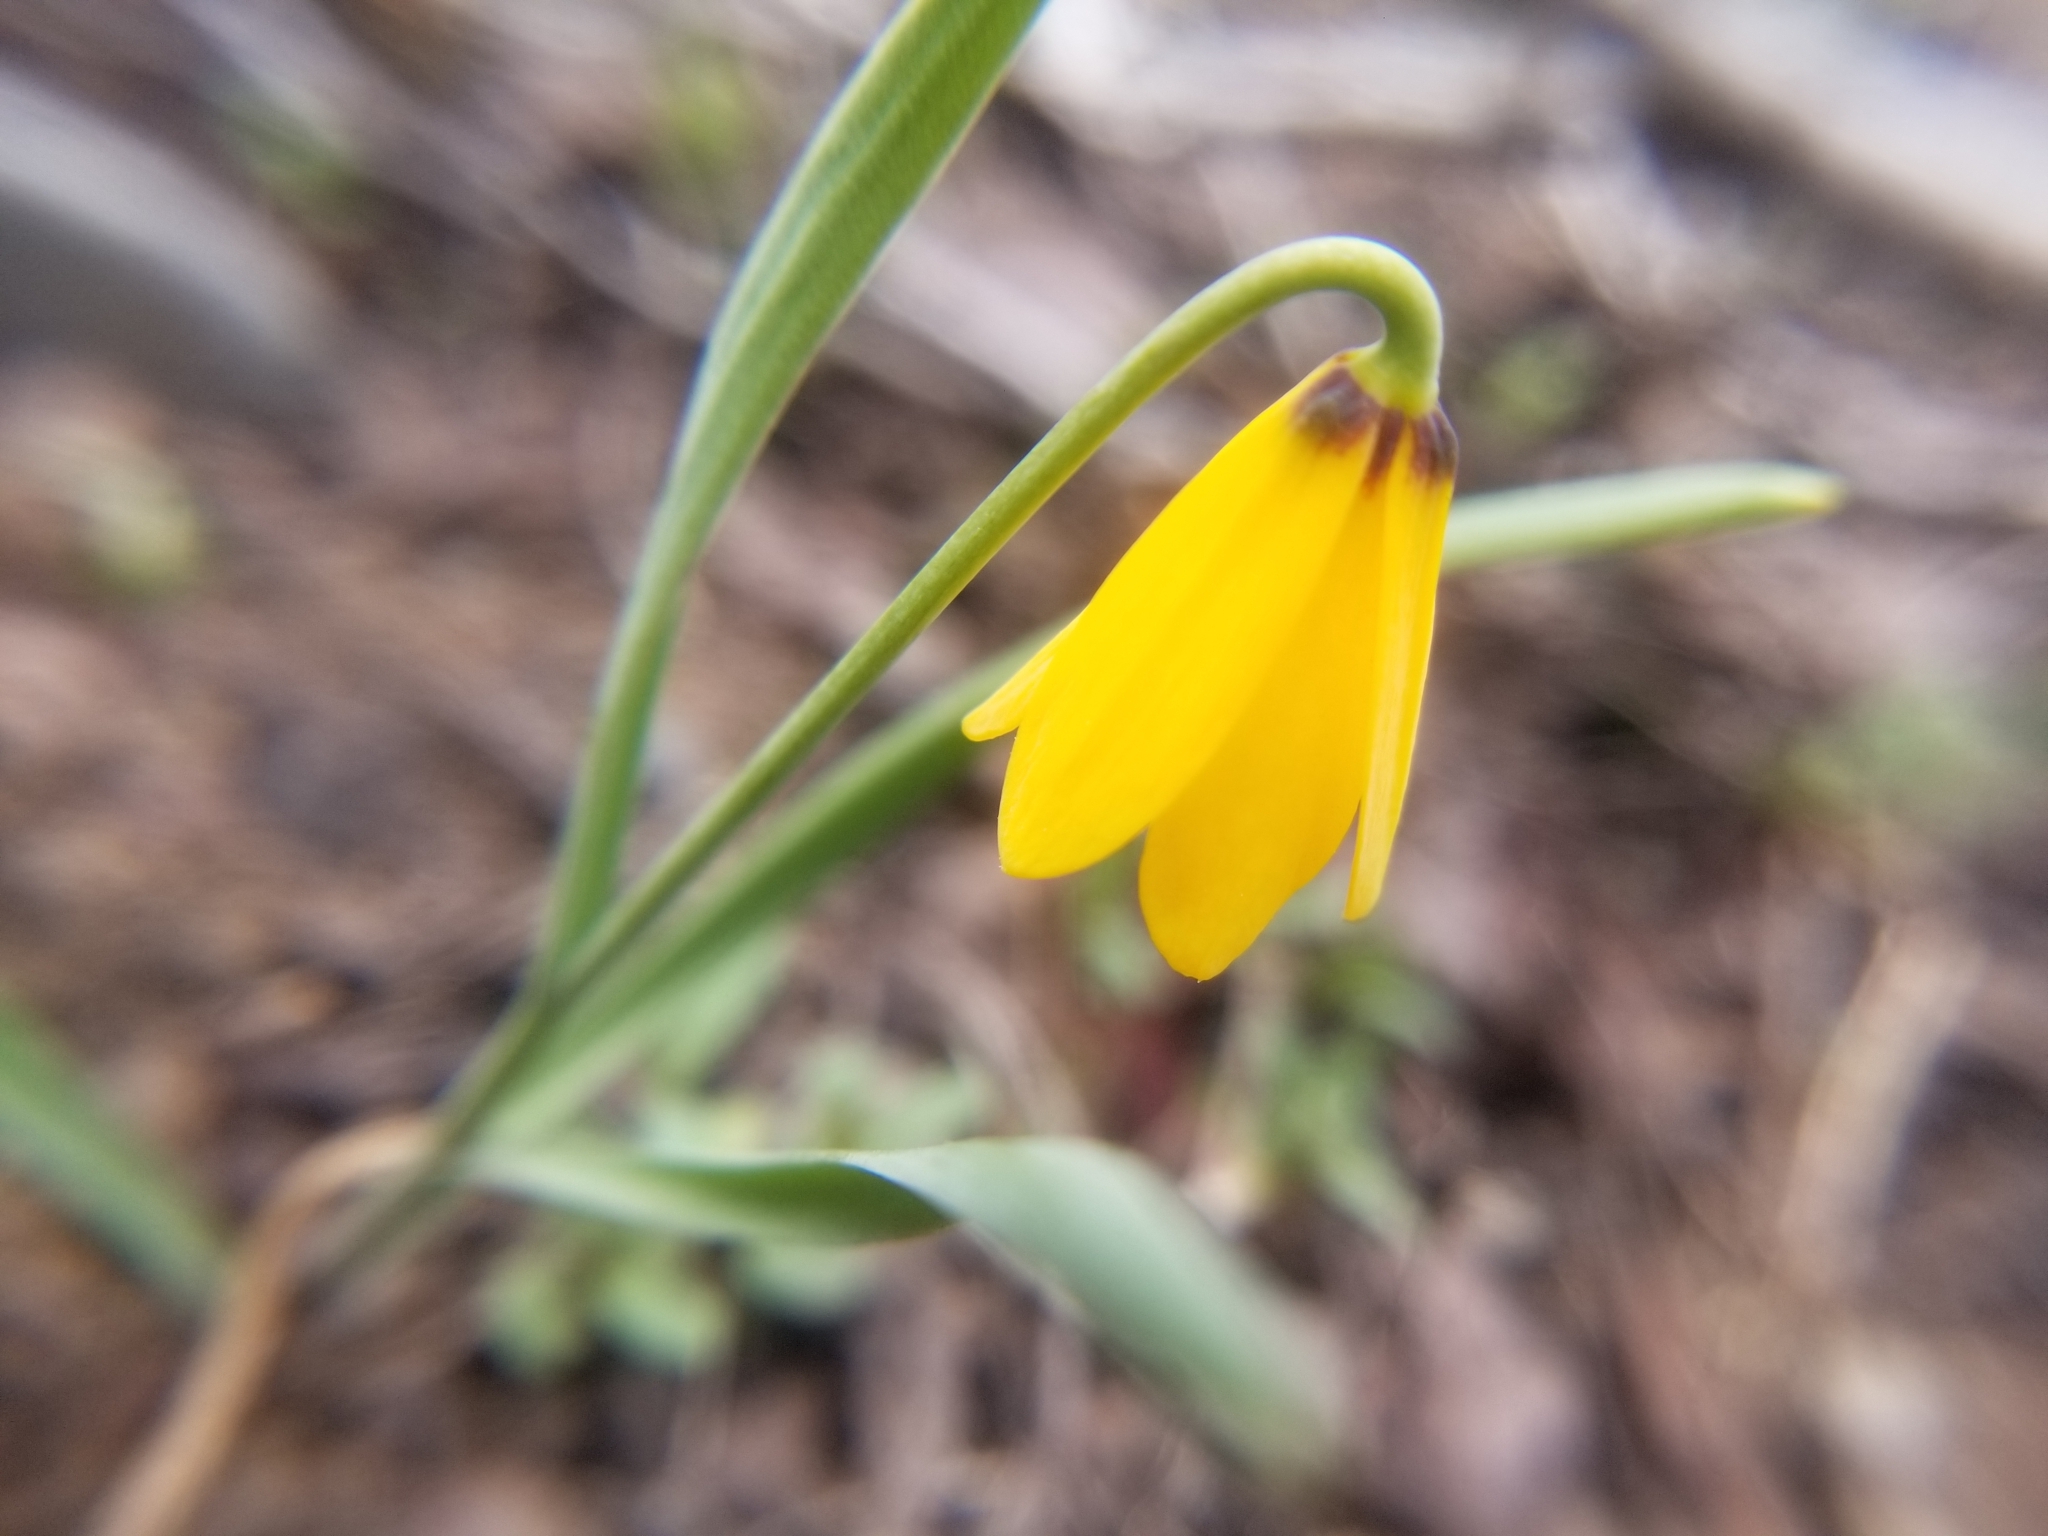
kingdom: Plantae
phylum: Tracheophyta
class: Liliopsida
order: Liliales
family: Liliaceae
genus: Fritillaria
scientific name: Fritillaria pudica
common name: Yellow fritillary
